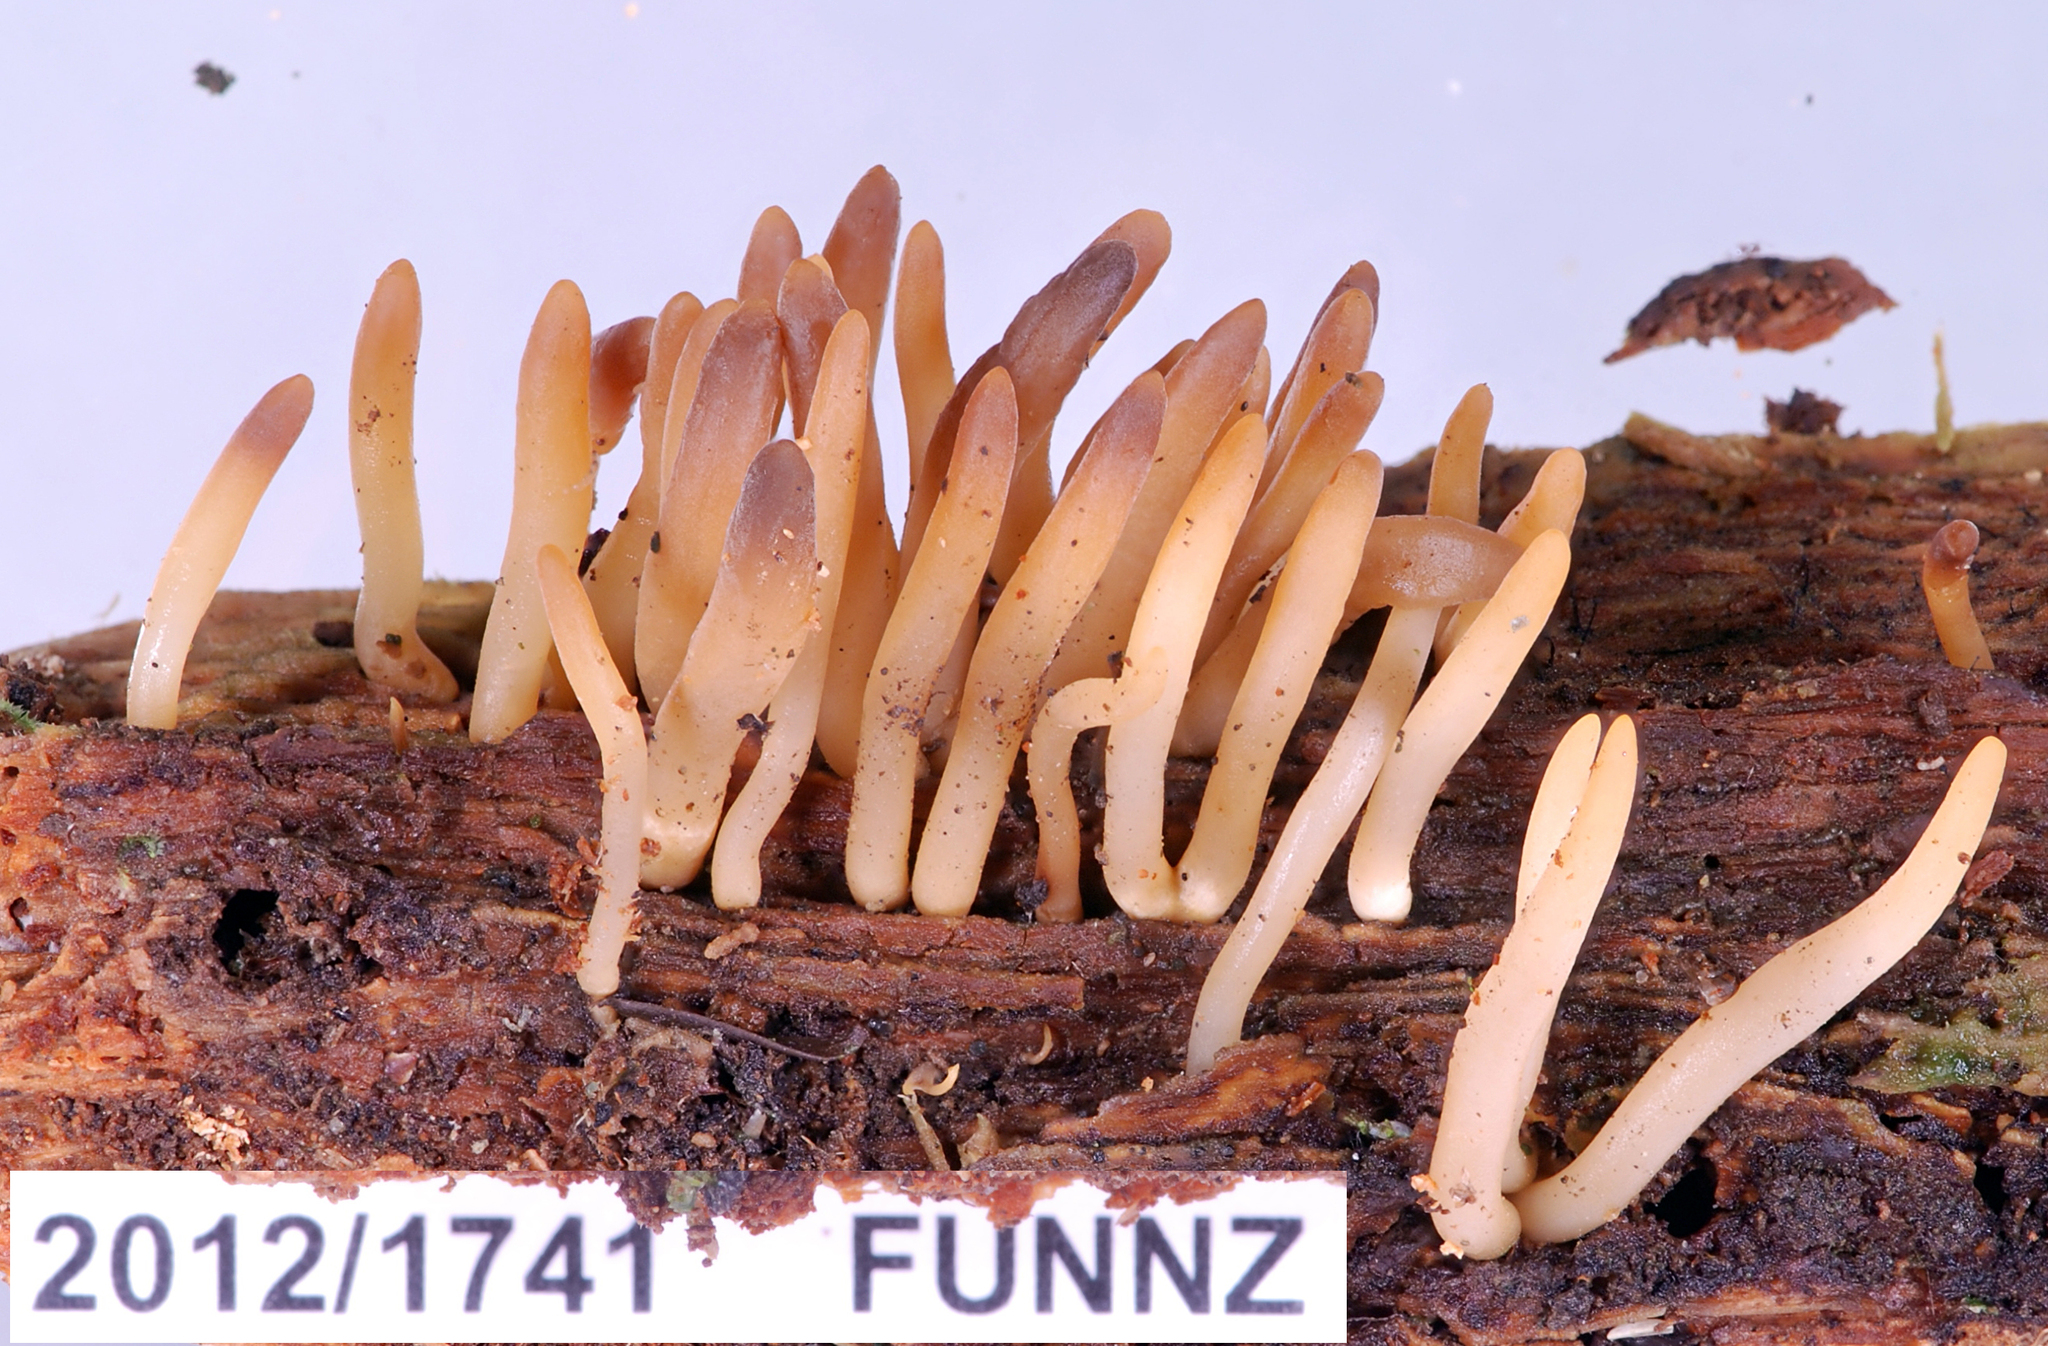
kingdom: Fungi
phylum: Basidiomycota
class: Dacrymycetes
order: Dacrymycetales
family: Dacrymycetaceae
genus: Calocera
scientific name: Calocera fusca
